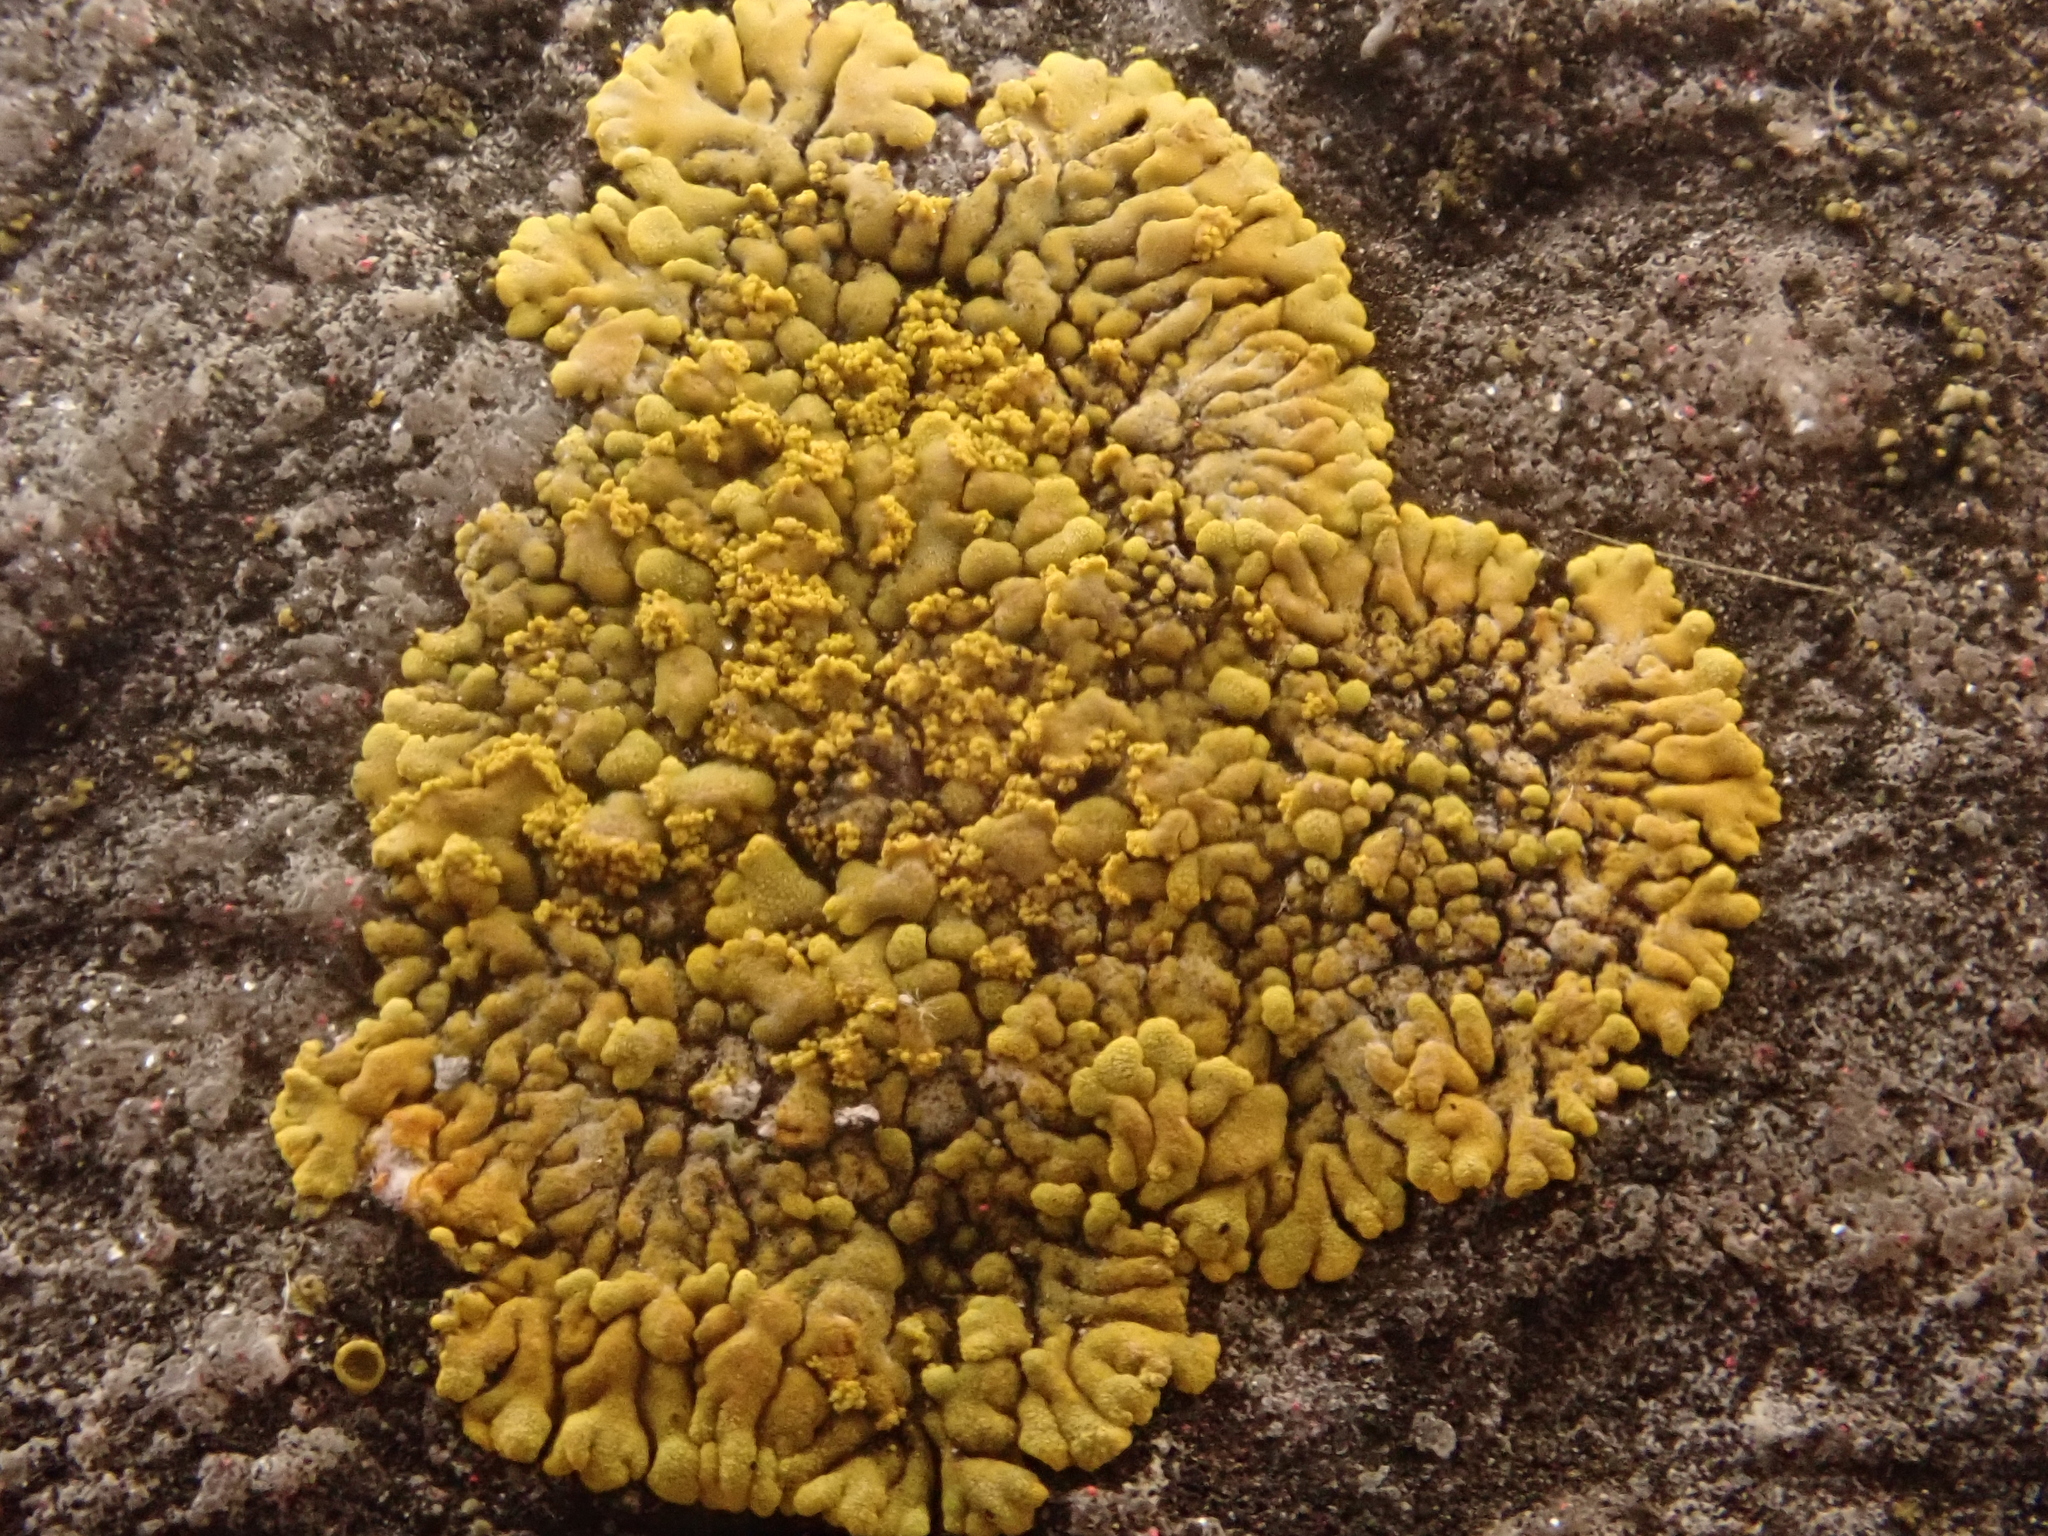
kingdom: Fungi
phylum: Ascomycota
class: Lecanoromycetes
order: Teloschistales
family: Teloschistaceae
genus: Calogaya
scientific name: Calogaya decipiens
